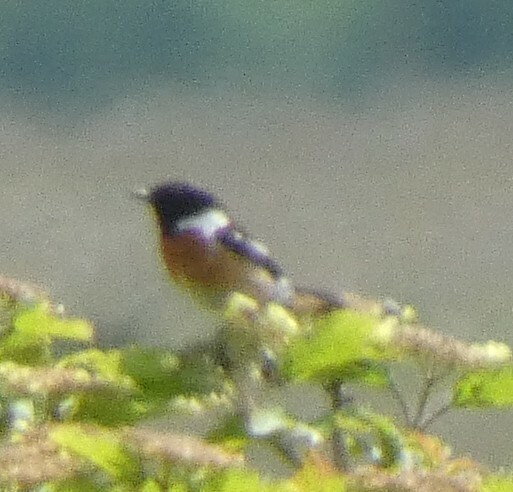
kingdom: Animalia
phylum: Chordata
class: Aves
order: Passeriformes
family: Muscicapidae
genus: Saxicola
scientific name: Saxicola rubicola
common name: European stonechat
